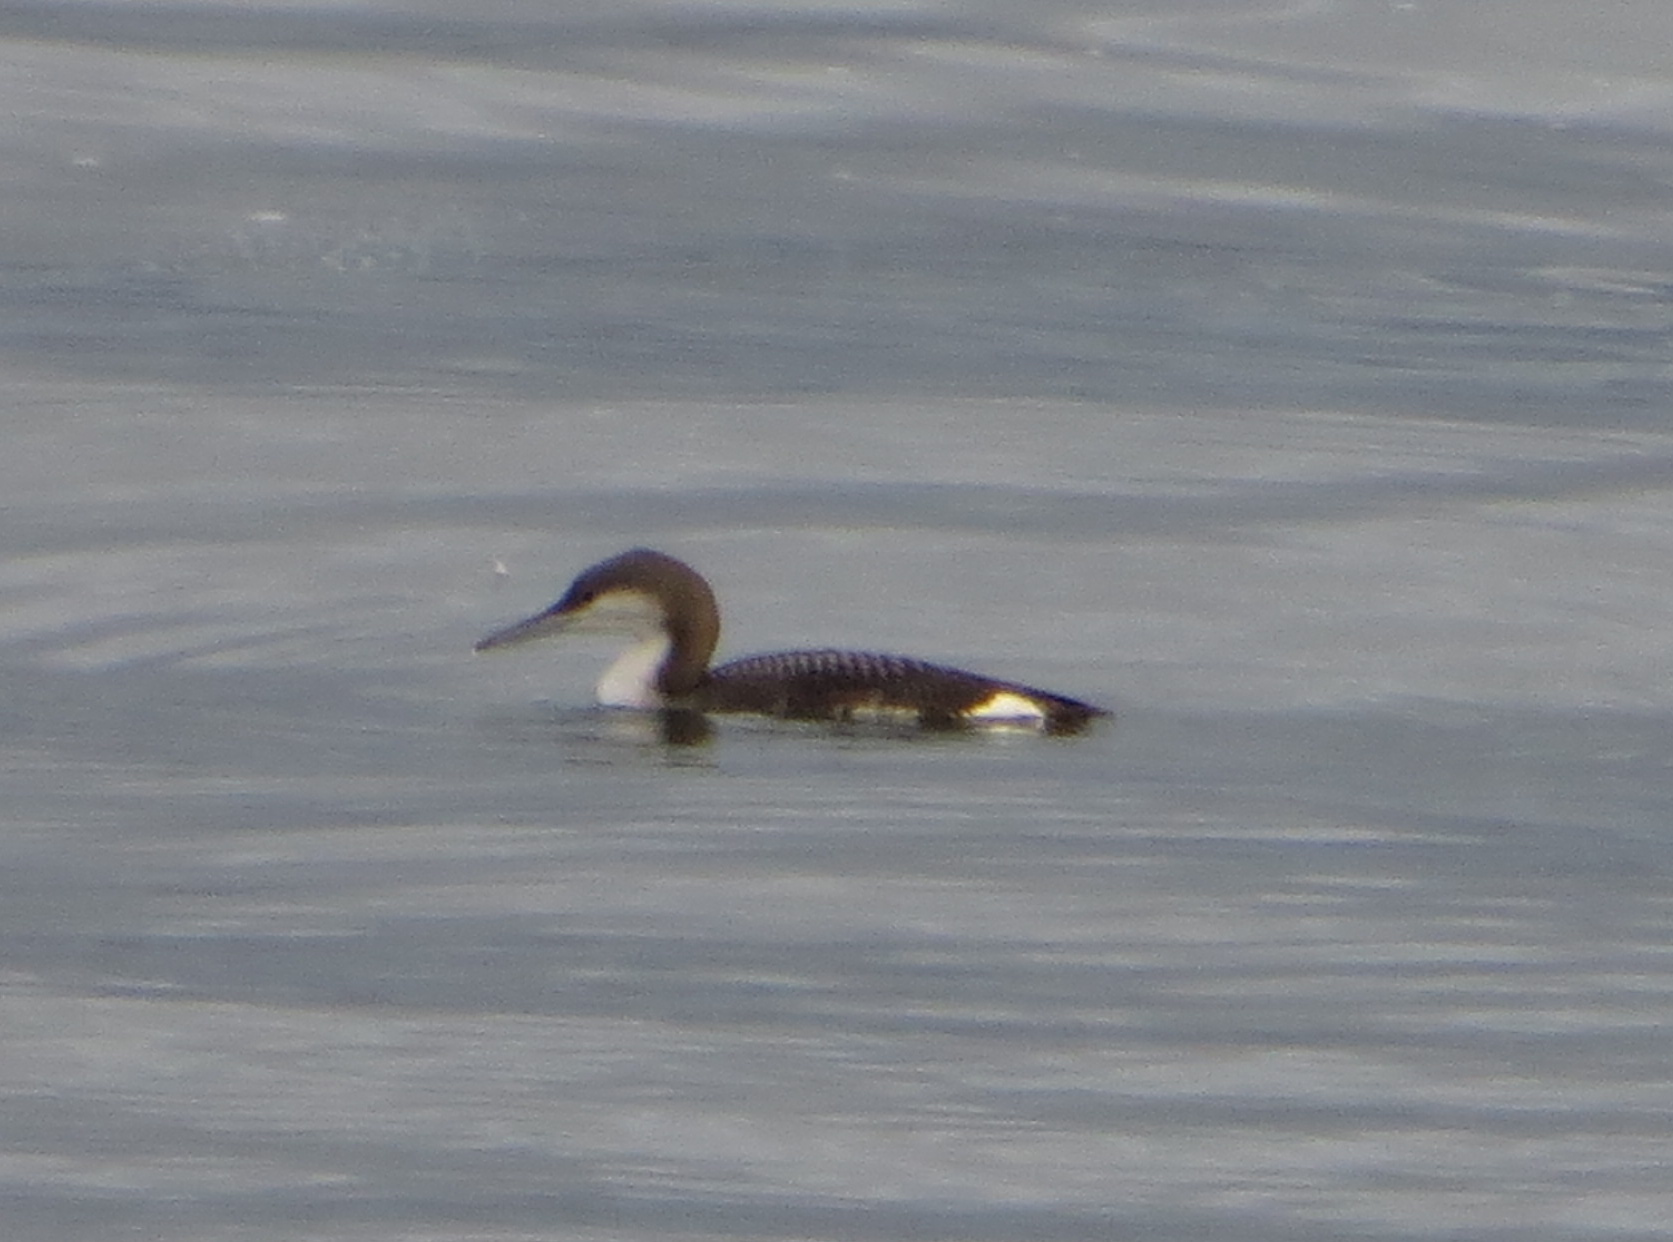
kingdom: Animalia
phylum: Chordata
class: Aves
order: Gaviiformes
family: Gaviidae
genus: Gavia
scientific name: Gavia arctica
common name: Black-throated loon
